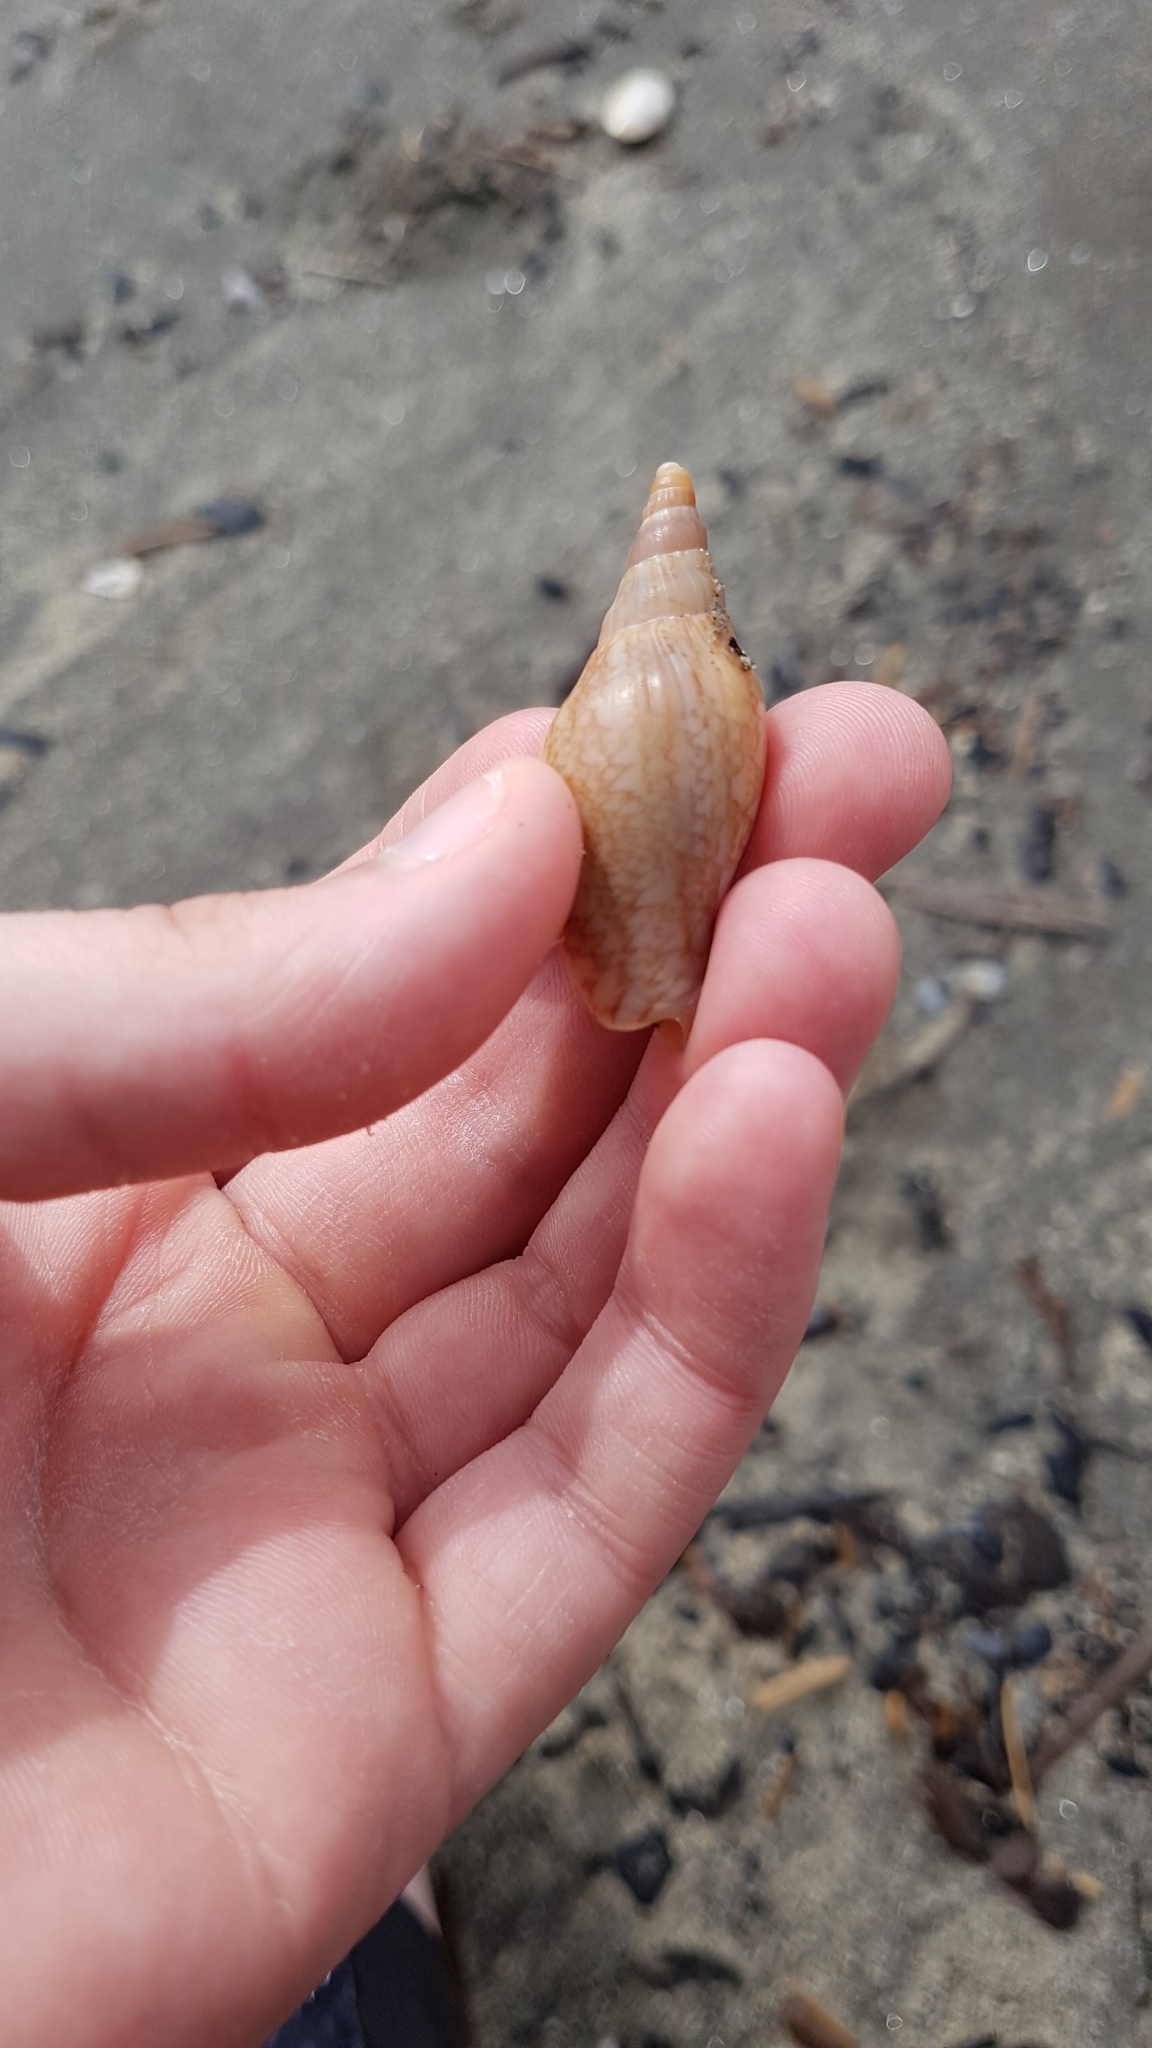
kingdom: Animalia
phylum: Mollusca
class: Gastropoda
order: Neogastropoda
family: Volutidae
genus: Alcithoe
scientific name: Alcithoe fusus
